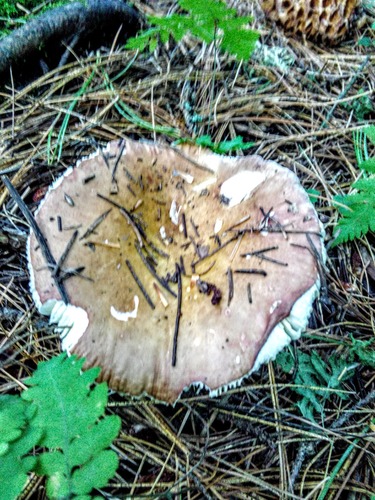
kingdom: Fungi
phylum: Basidiomycota
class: Agaricomycetes
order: Russulales
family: Russulaceae
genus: Russula
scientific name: Russula
